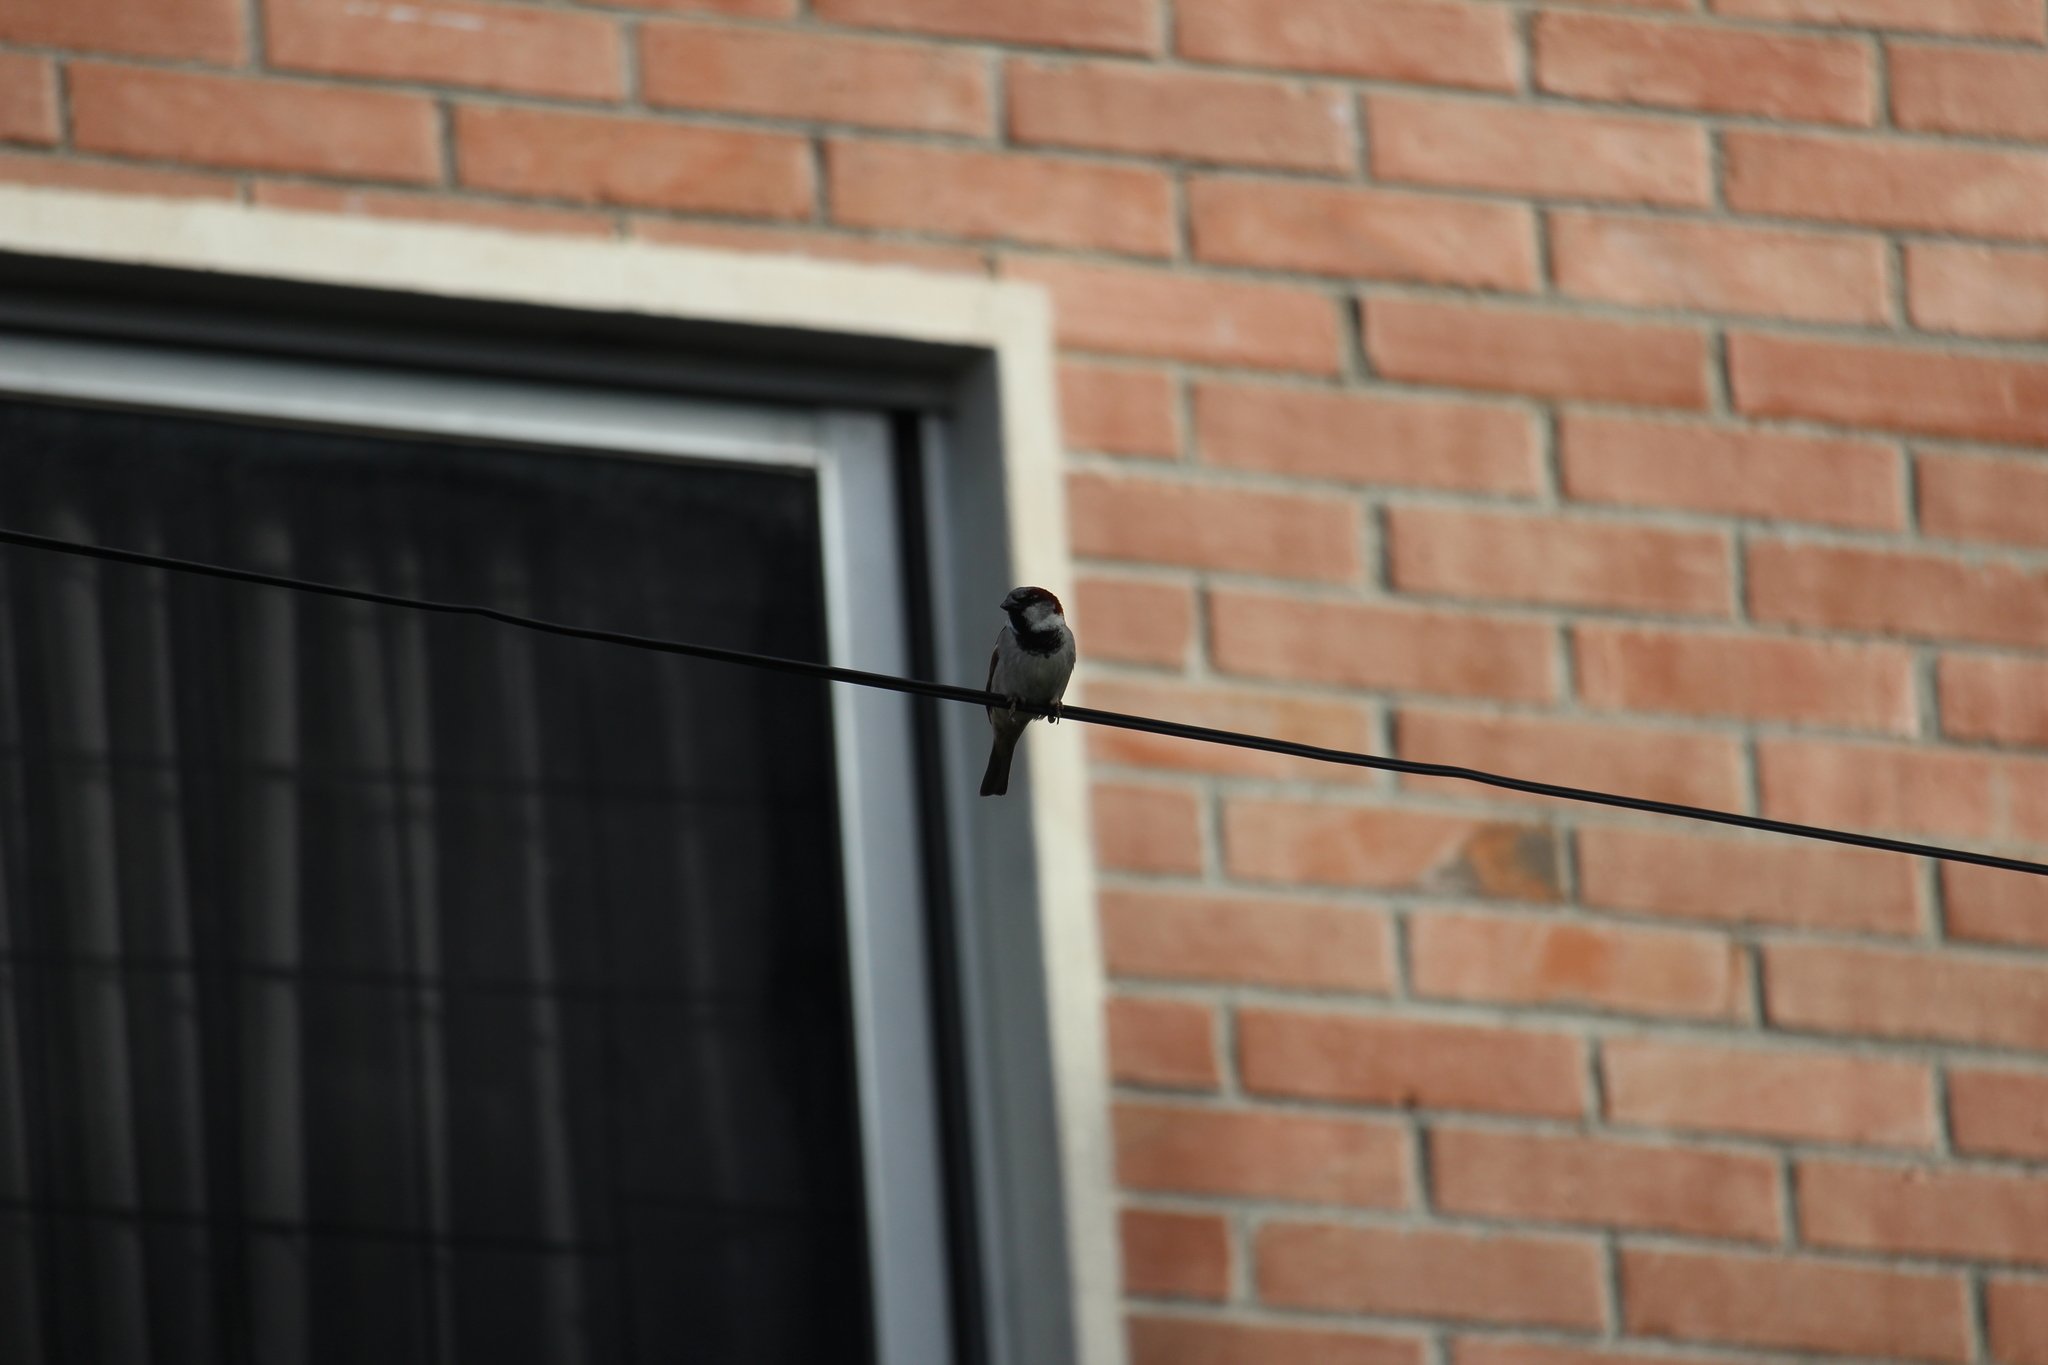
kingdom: Animalia
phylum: Chordata
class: Aves
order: Passeriformes
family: Passeridae
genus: Passer
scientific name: Passer domesticus
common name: House sparrow
